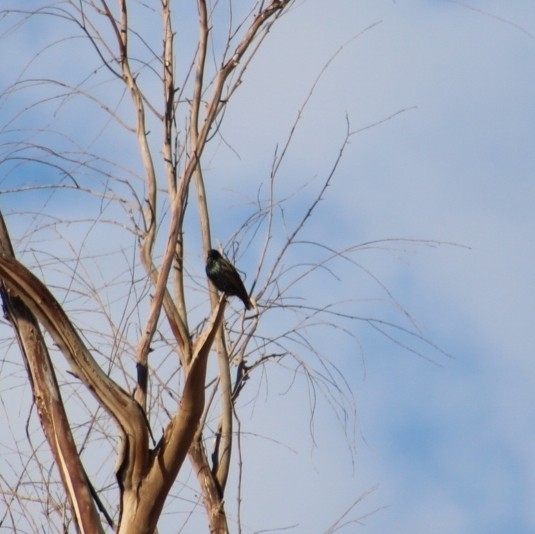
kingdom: Animalia
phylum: Chordata
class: Aves
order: Passeriformes
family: Sturnidae
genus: Sturnus
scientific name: Sturnus vulgaris
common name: Common starling
